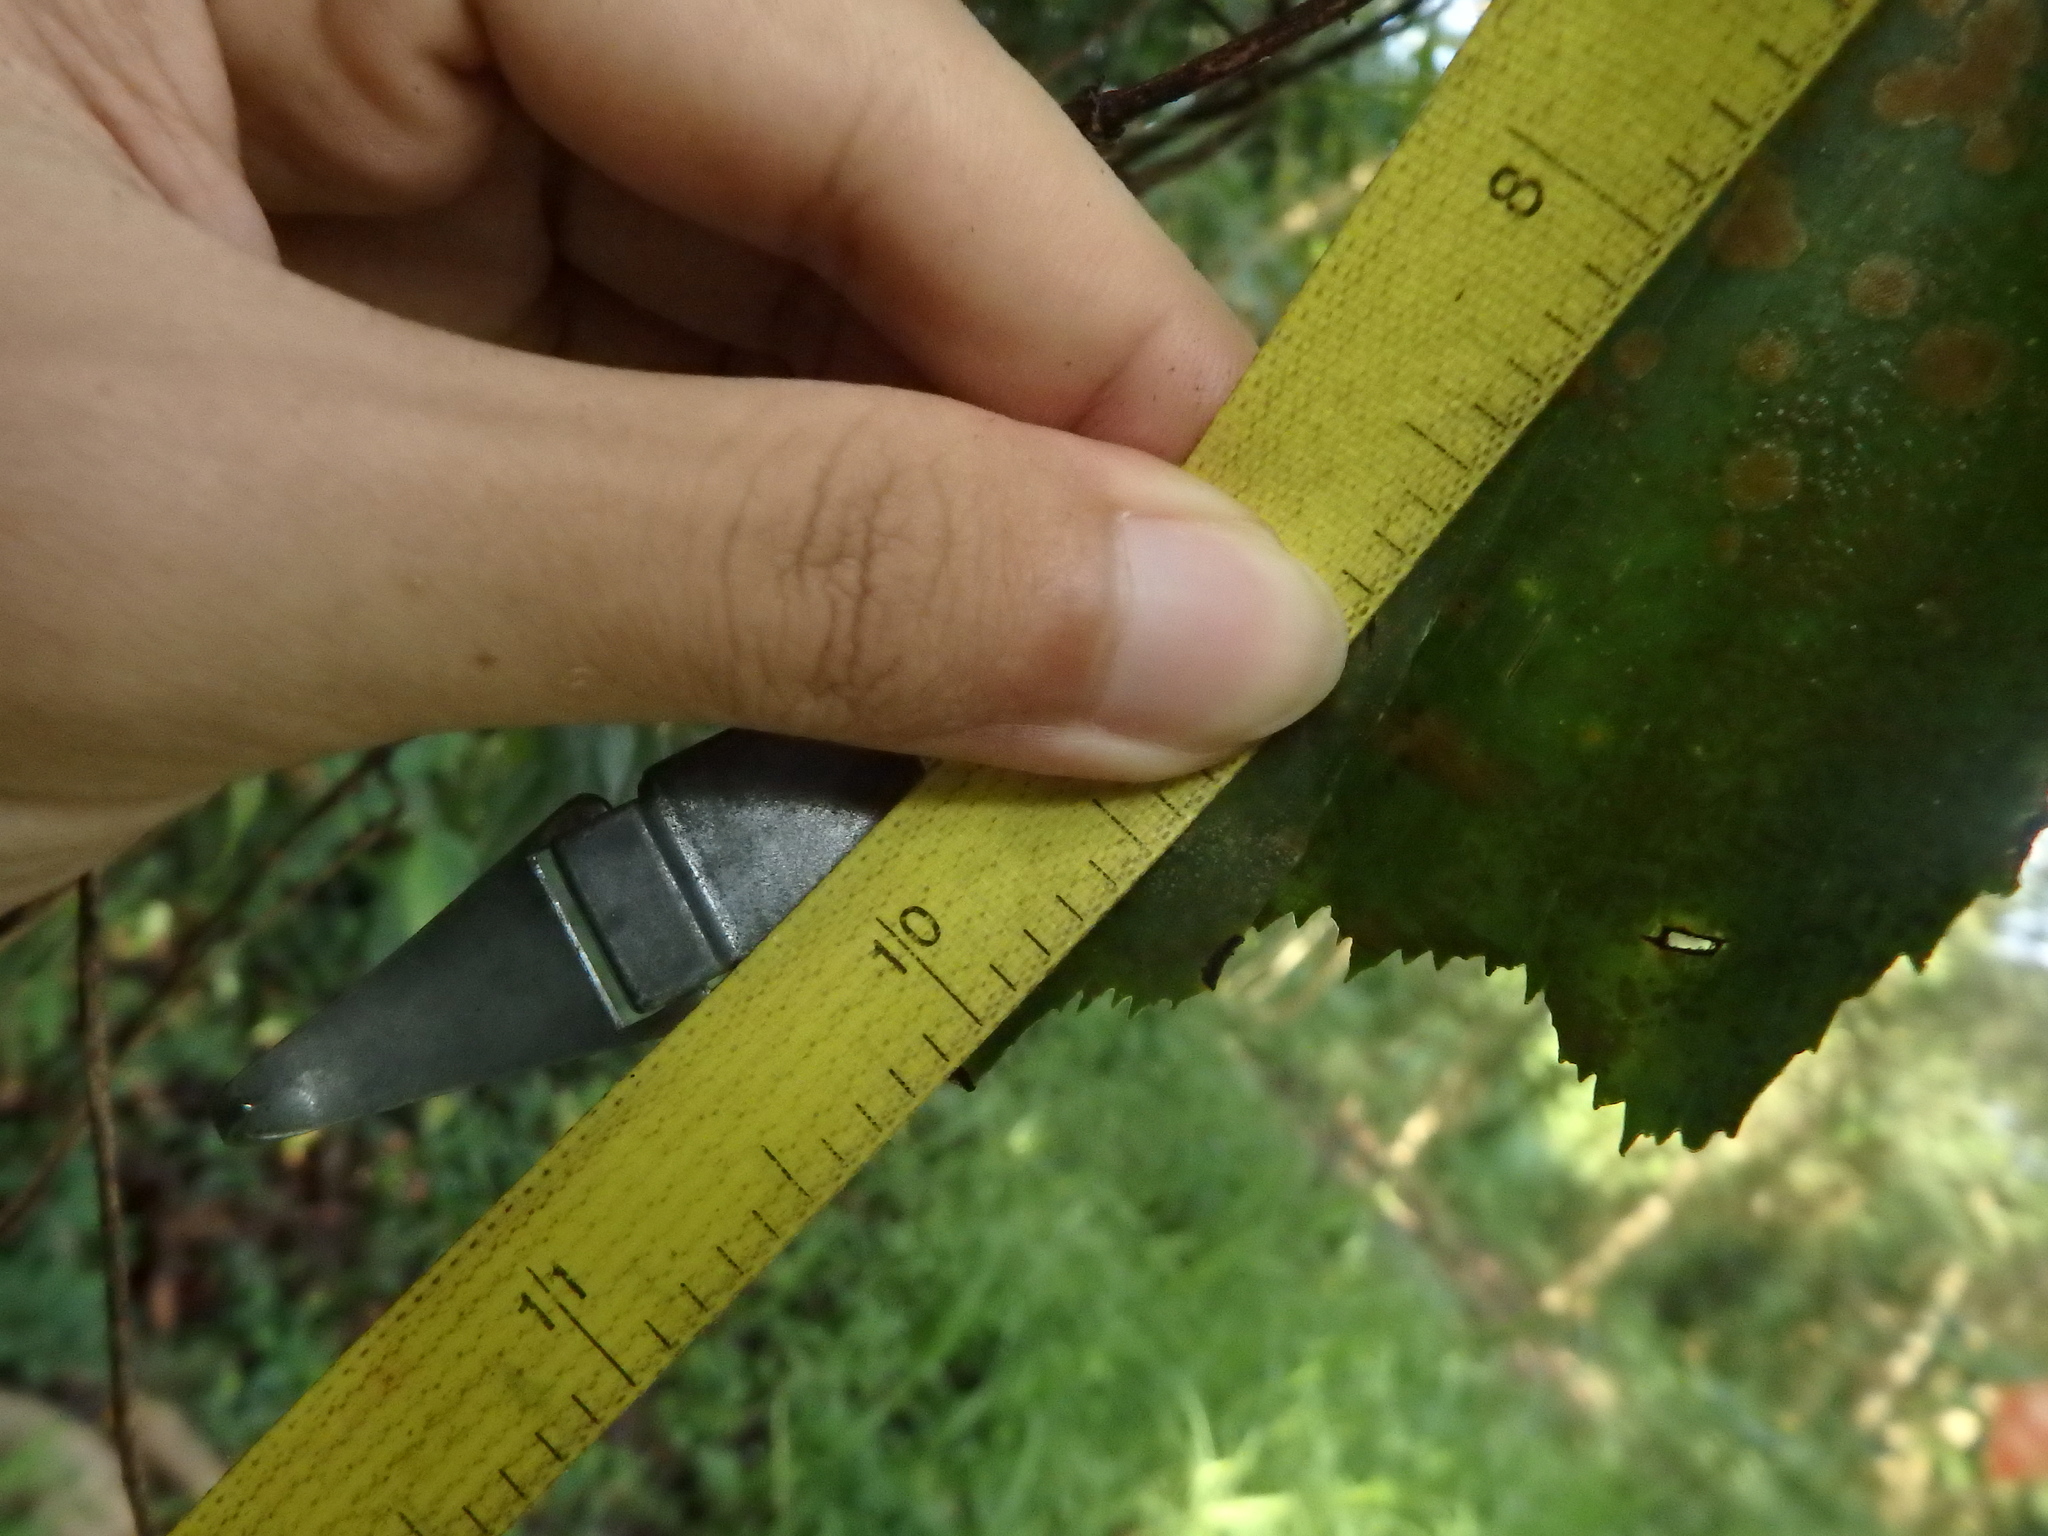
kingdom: Plantae
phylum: Tracheophyta
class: Liliopsida
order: Arecales
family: Arecaceae
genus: Caryota
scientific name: Caryota mitis
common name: Burmese fishtail palm
